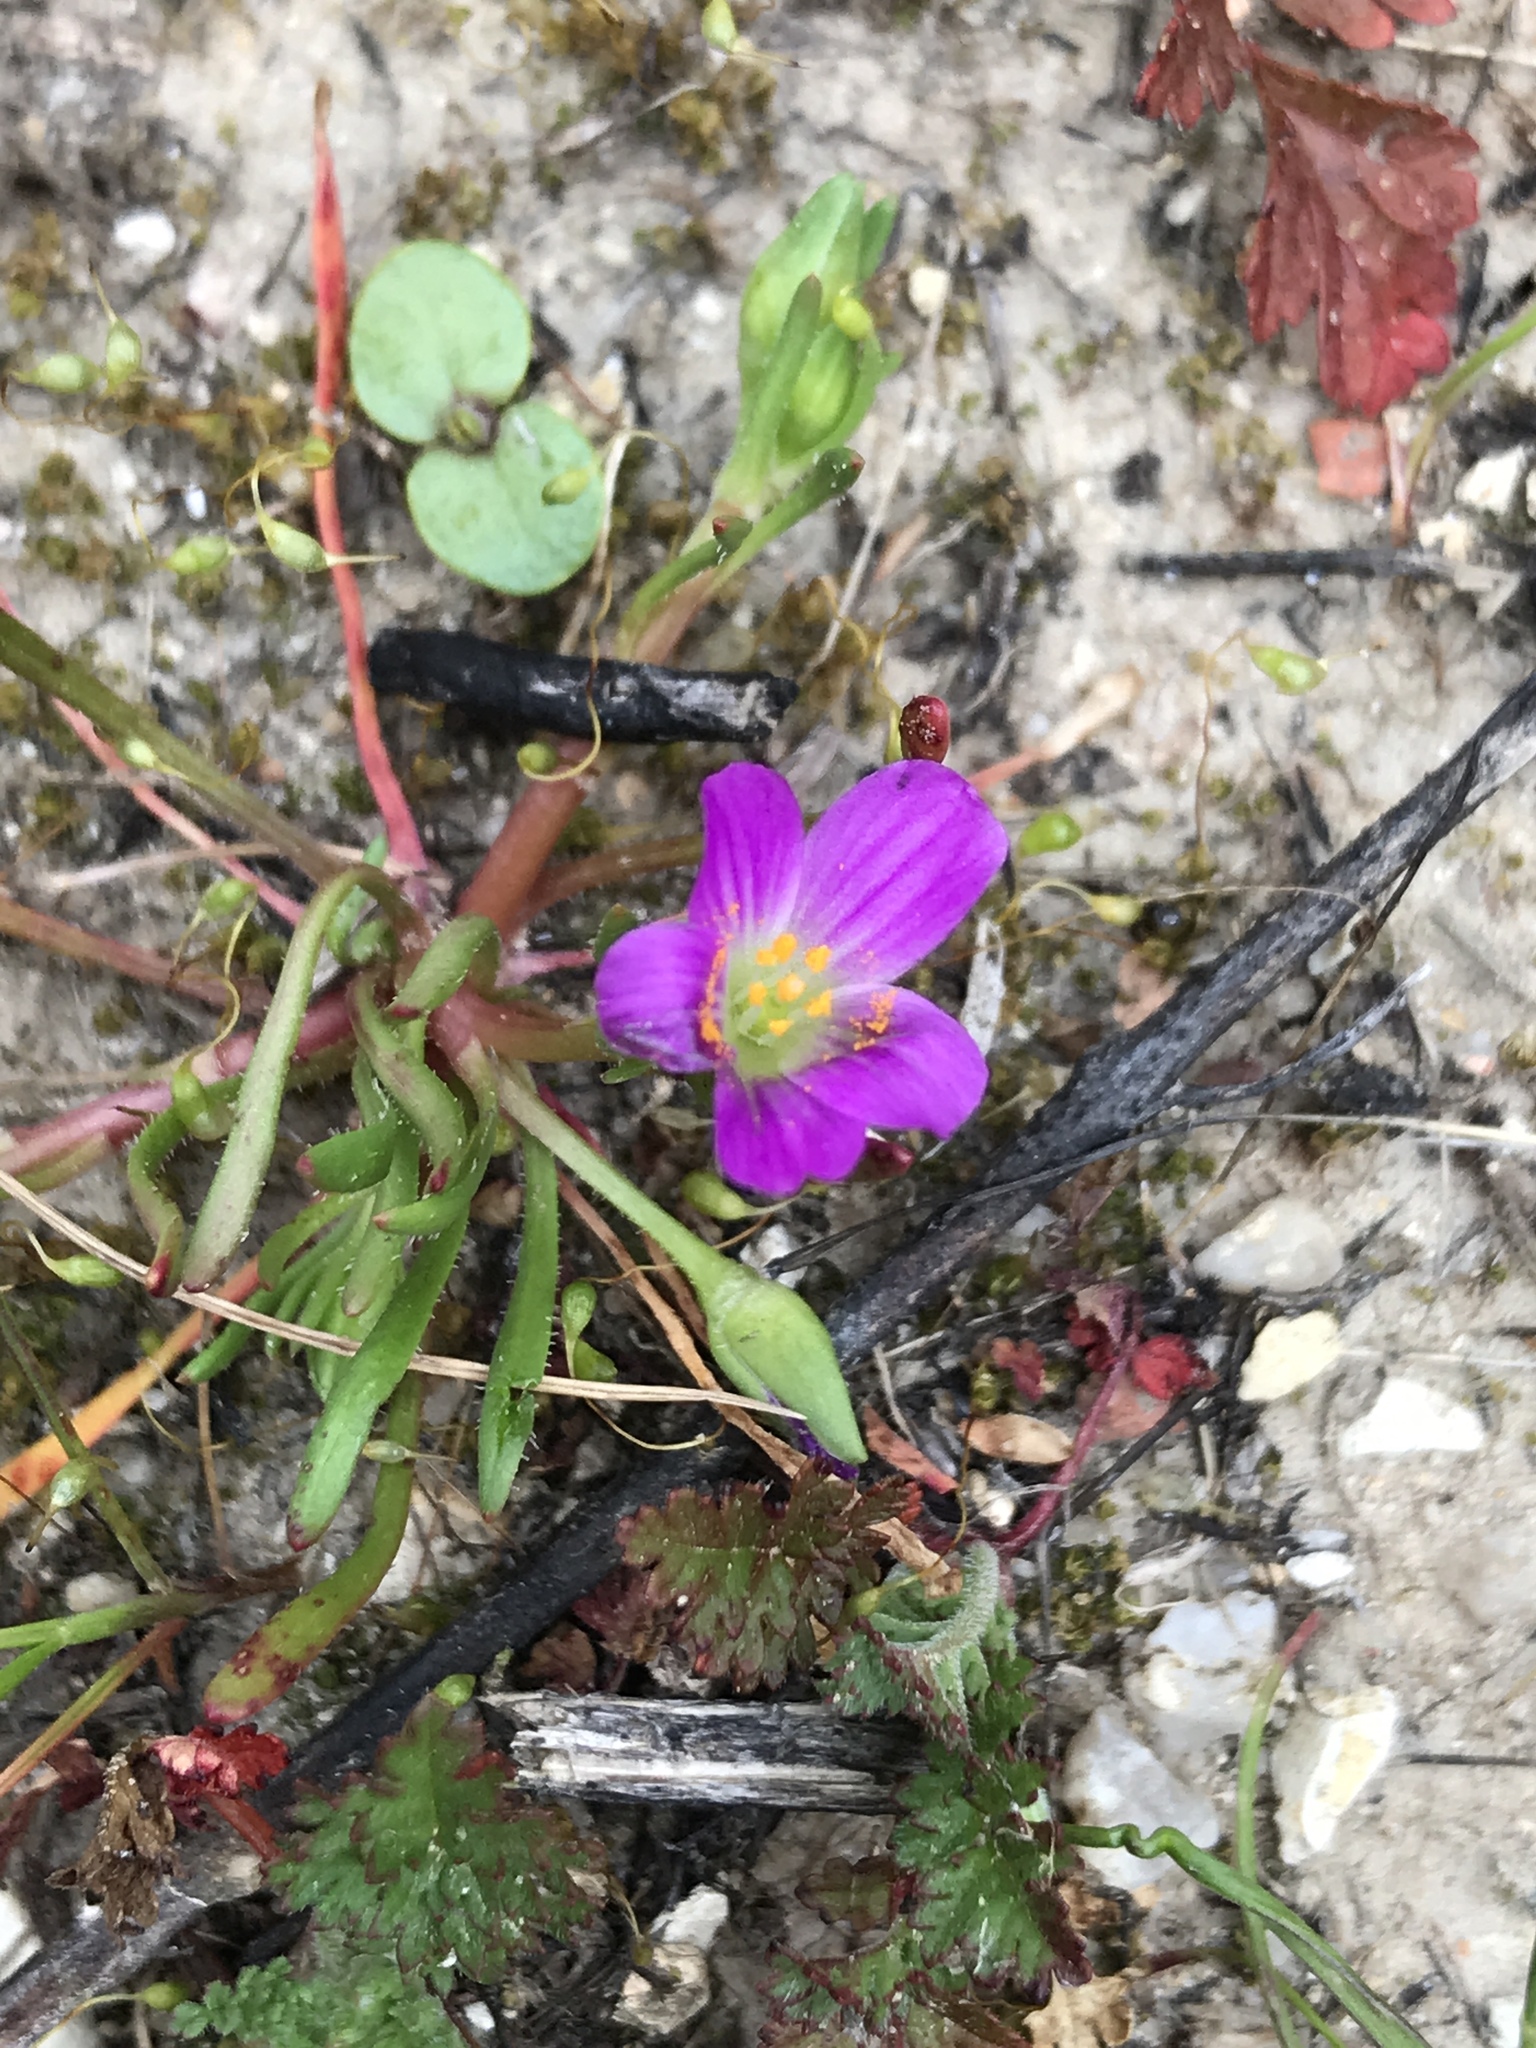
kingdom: Plantae
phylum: Tracheophyta
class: Magnoliopsida
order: Caryophyllales
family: Montiaceae
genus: Calandrinia
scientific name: Calandrinia menziesii
